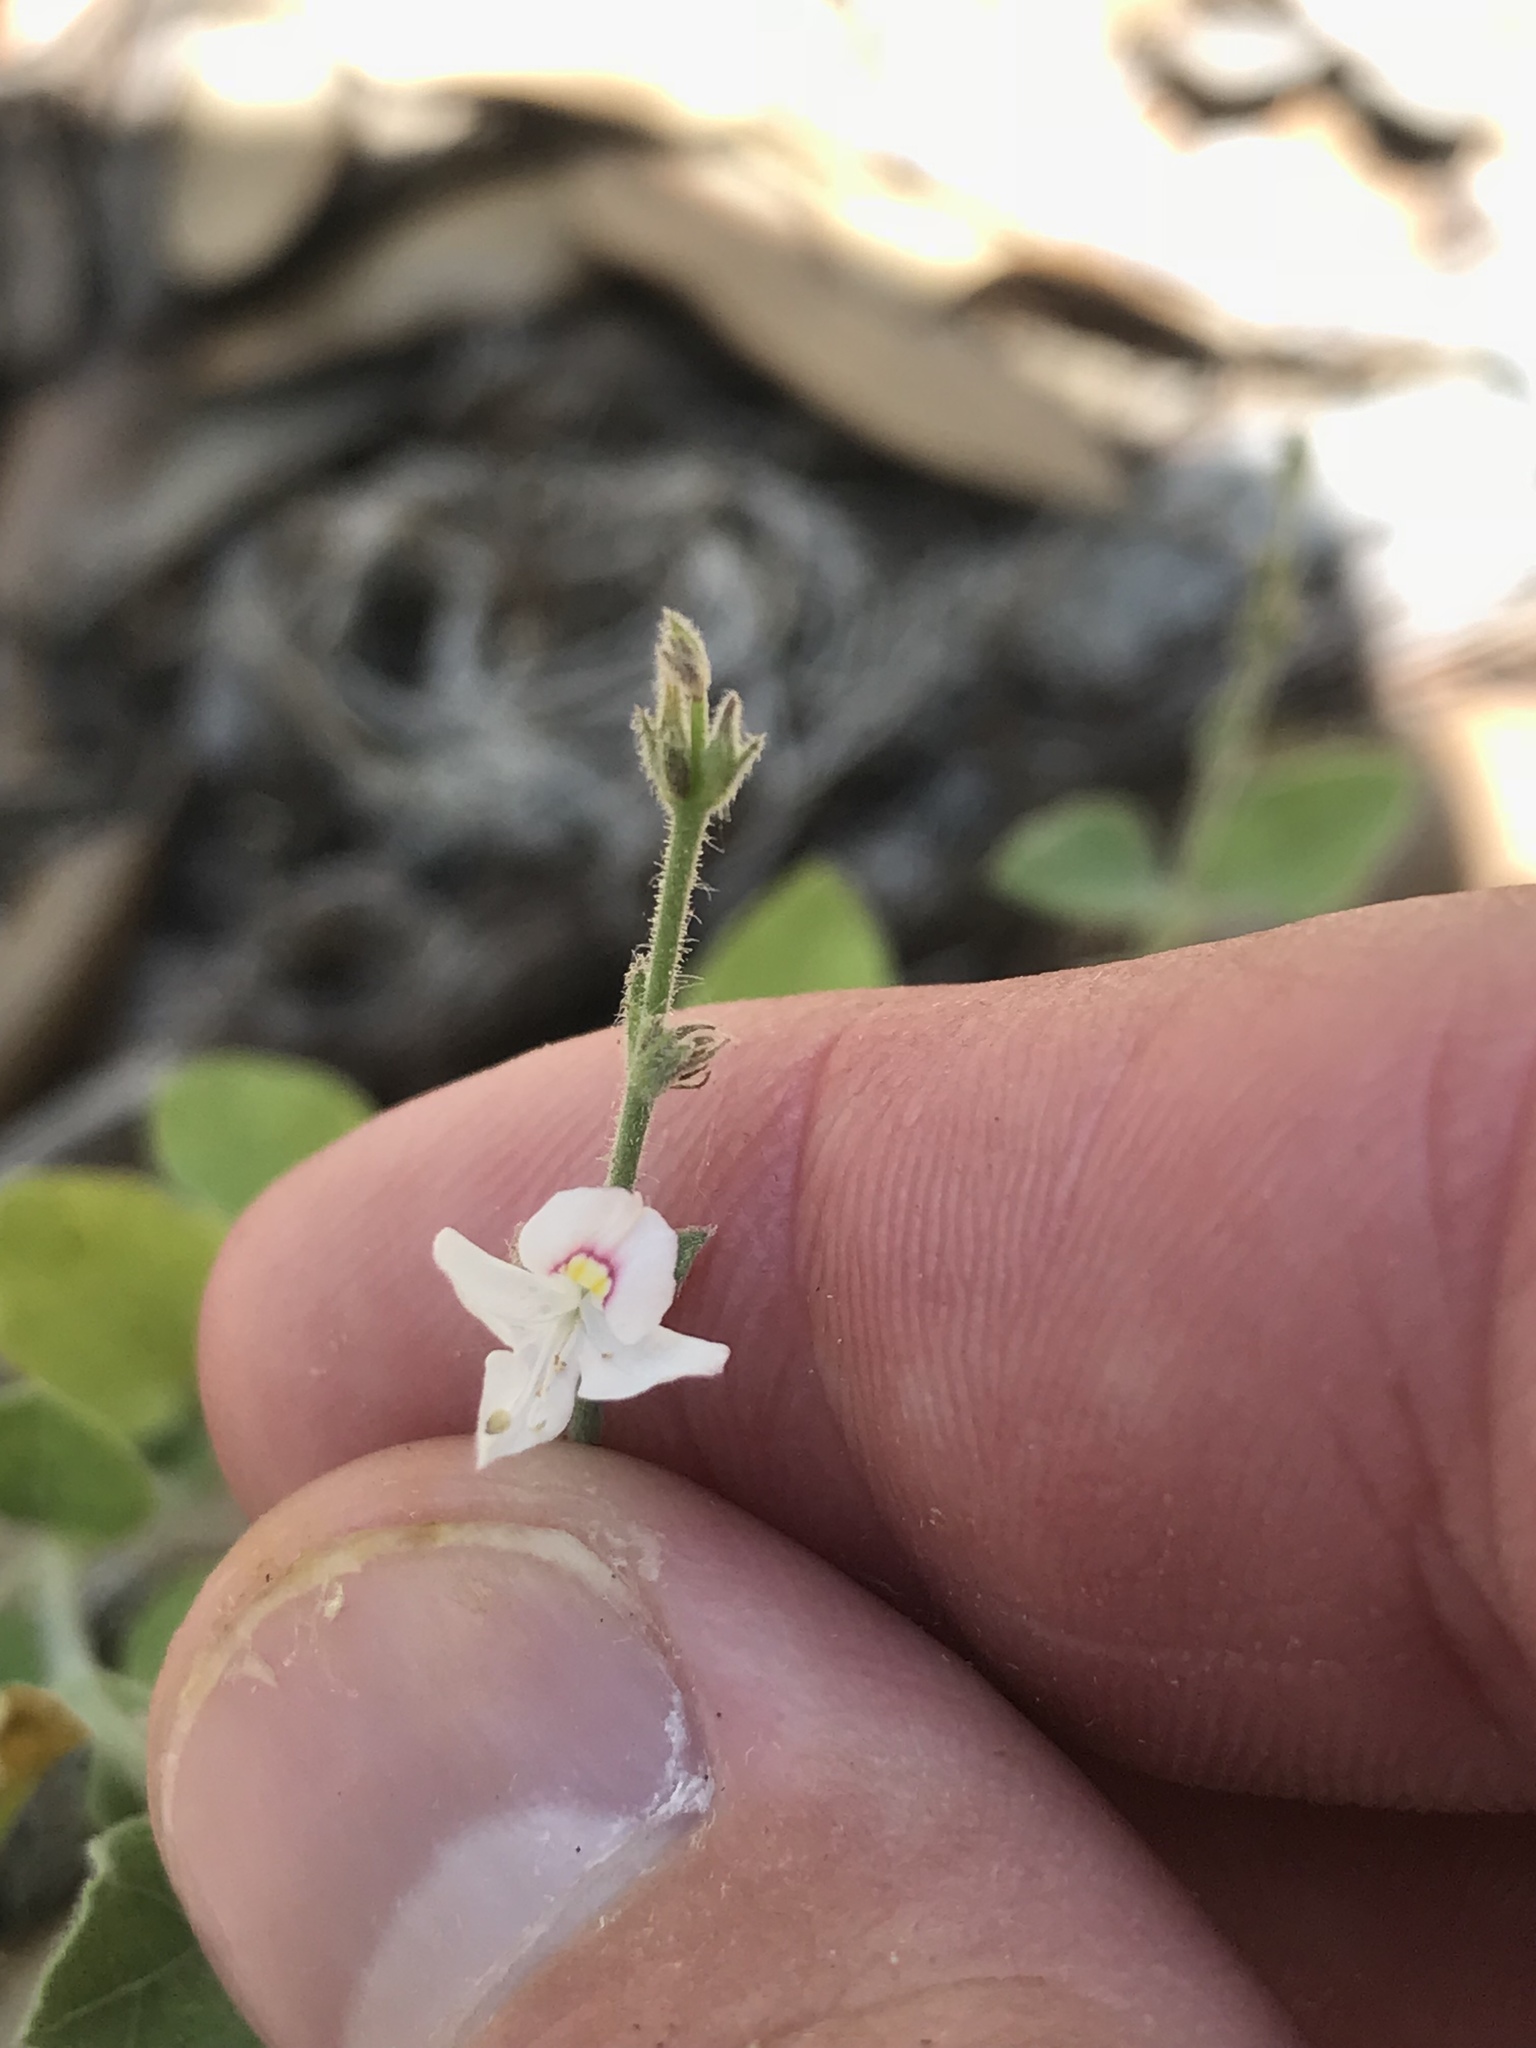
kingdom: Plantae
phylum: Tracheophyta
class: Magnoliopsida
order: Lamiales
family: Acanthaceae
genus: Carlowrightia
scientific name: Carlowrightia torreyana
